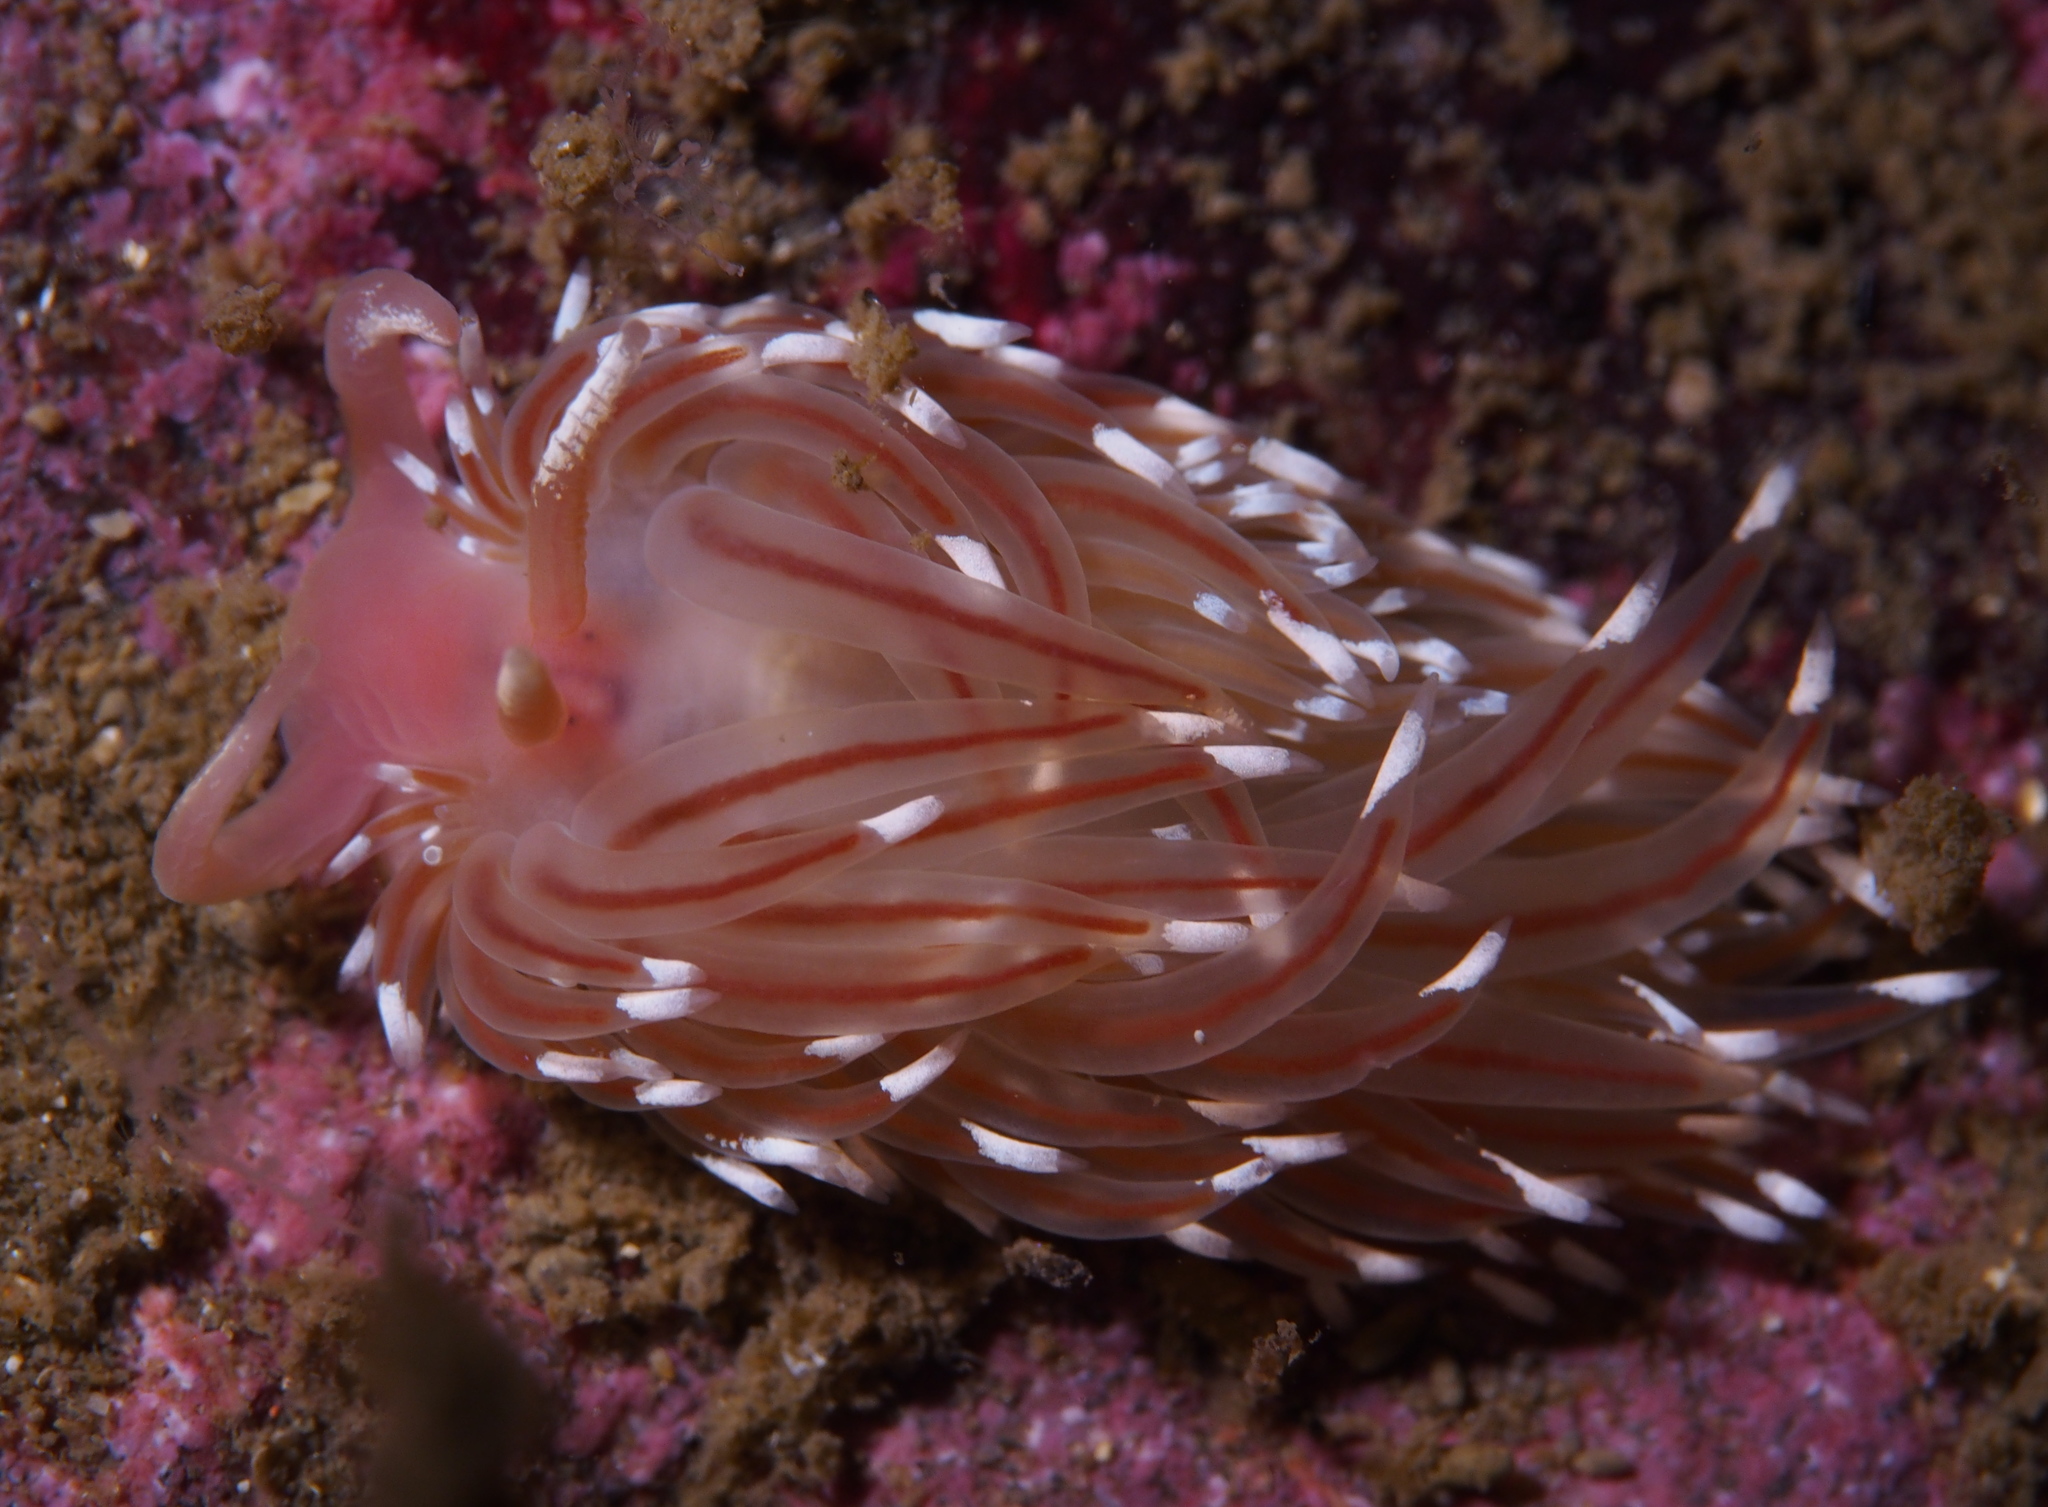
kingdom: Animalia
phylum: Mollusca
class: Gastropoda
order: Nudibranchia
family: Facelinidae
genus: Facelina
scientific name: Facelina bostoniensis
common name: Boston facelina
